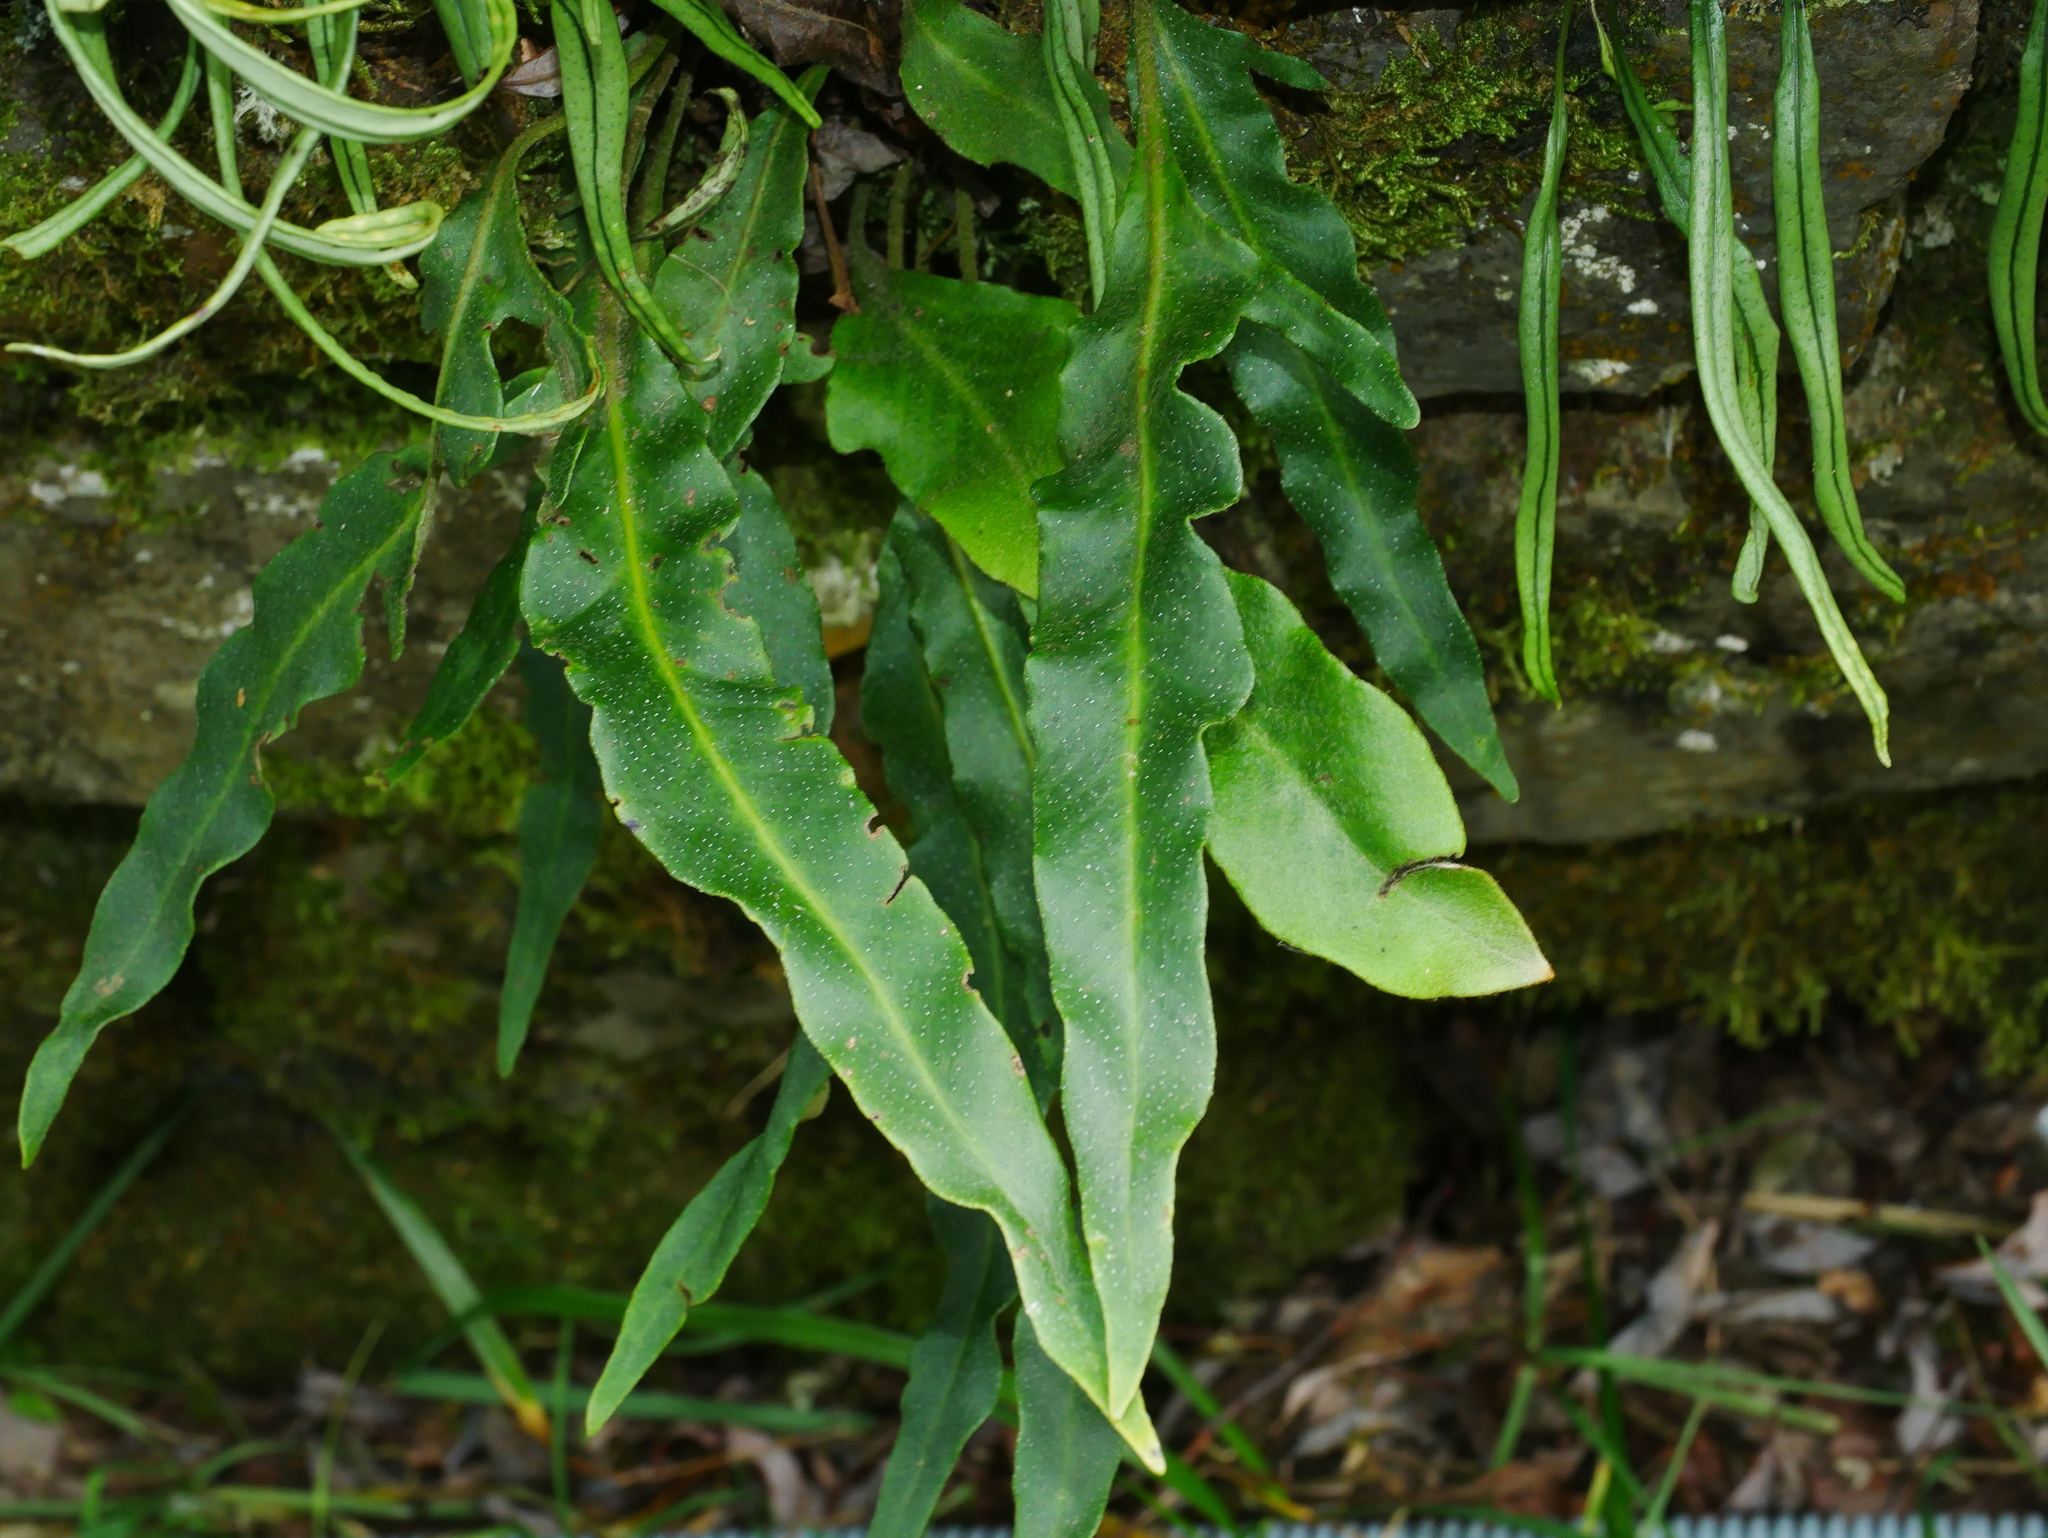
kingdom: Plantae
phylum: Tracheophyta
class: Polypodiopsida
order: Polypodiales
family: Polypodiaceae
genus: Pyrrosia
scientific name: Pyrrosia matsudae
